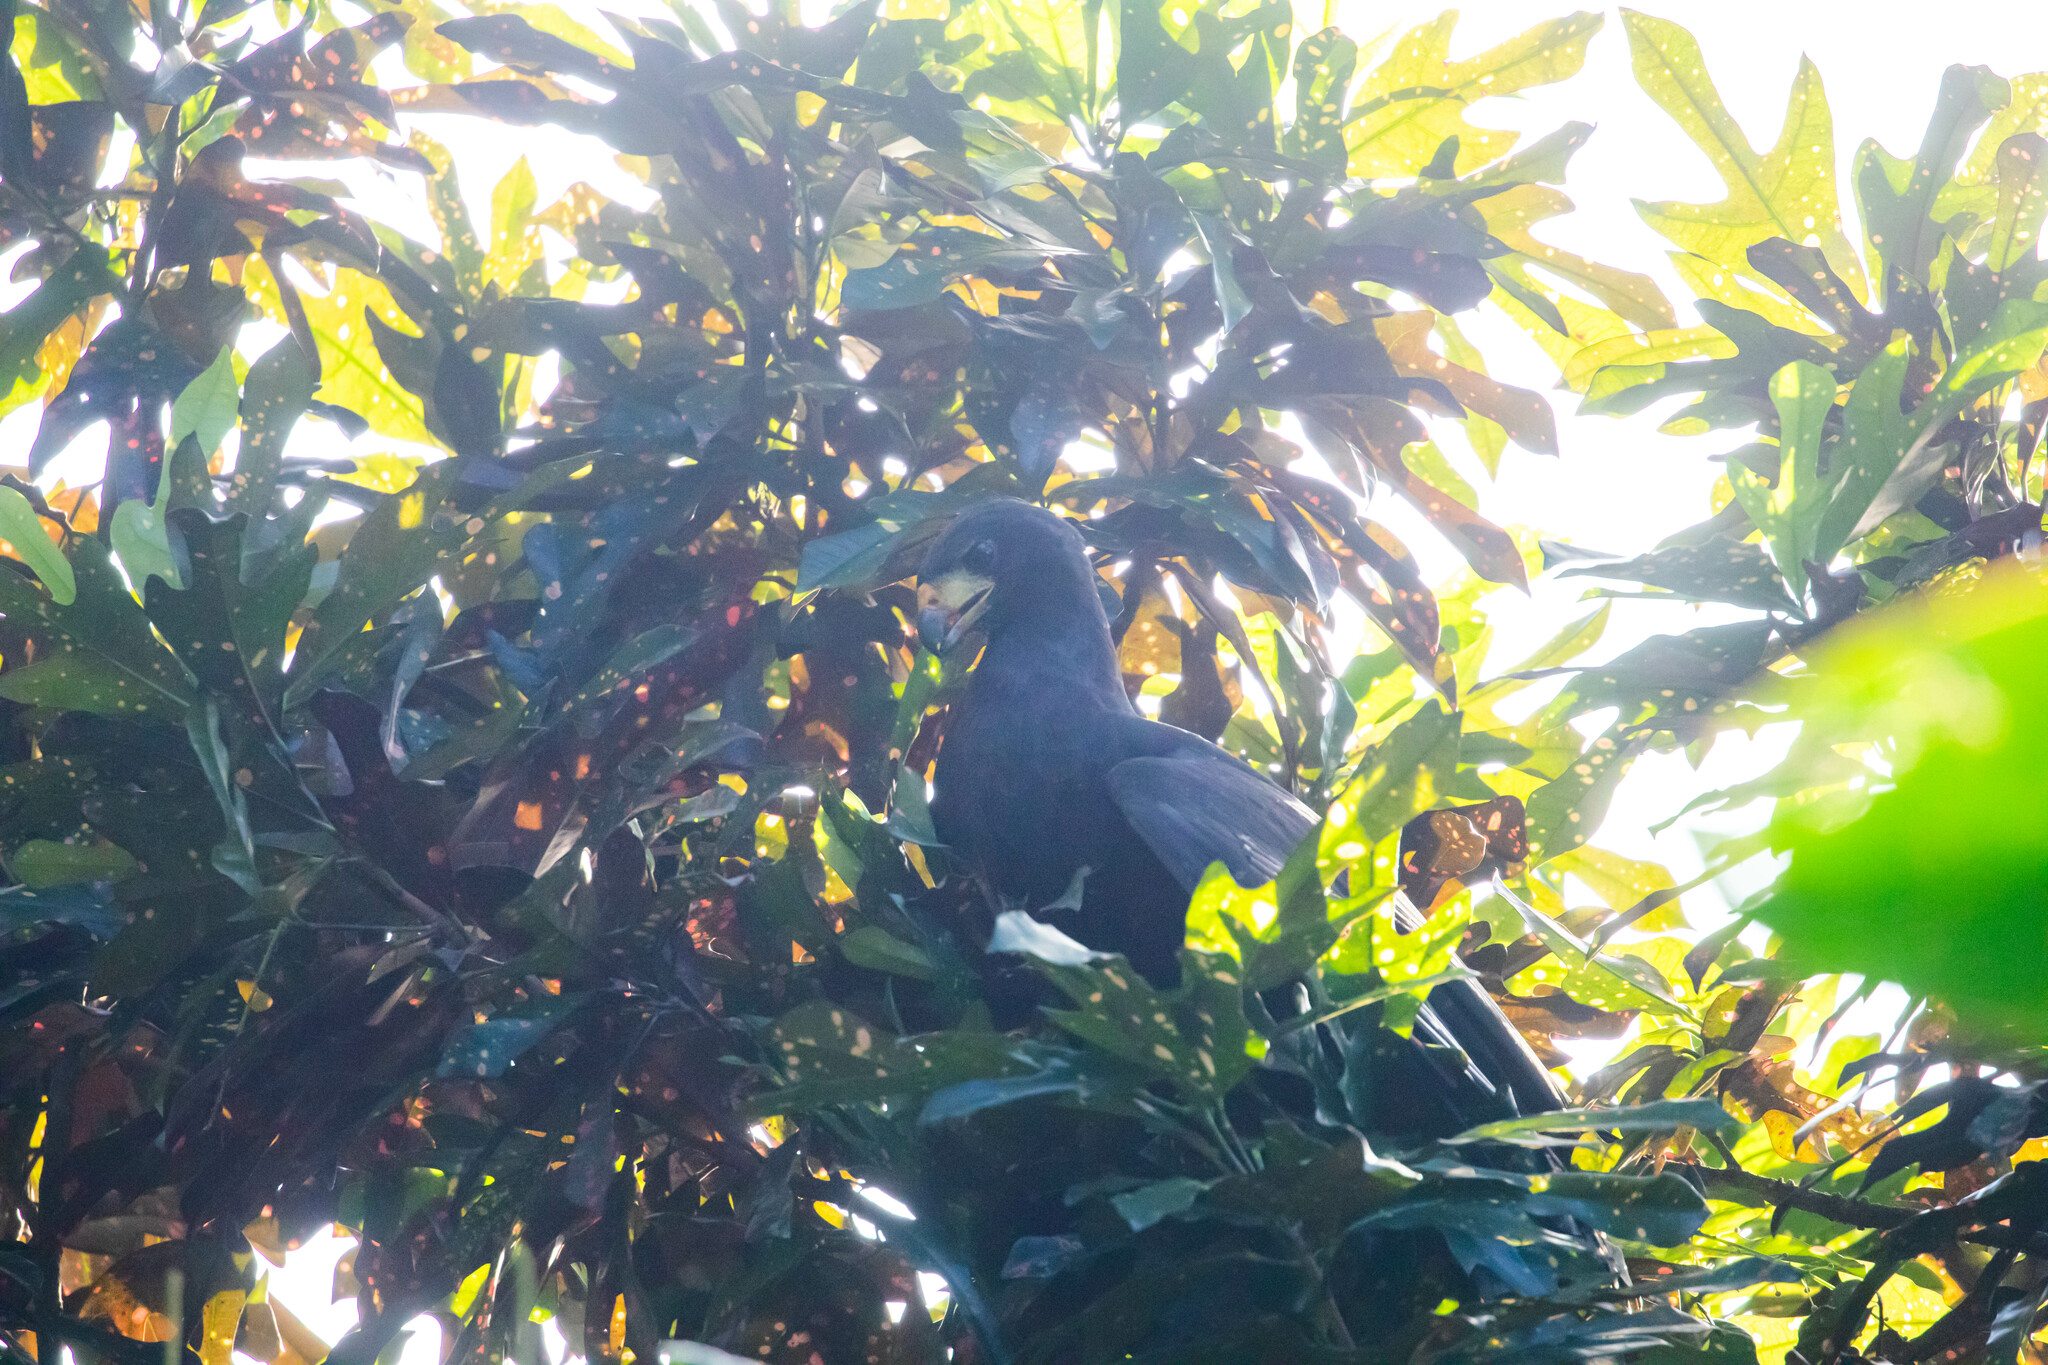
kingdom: Animalia
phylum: Chordata
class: Aves
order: Accipitriformes
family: Accipitridae
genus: Buteogallus
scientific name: Buteogallus urubitinga
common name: Great black hawk
